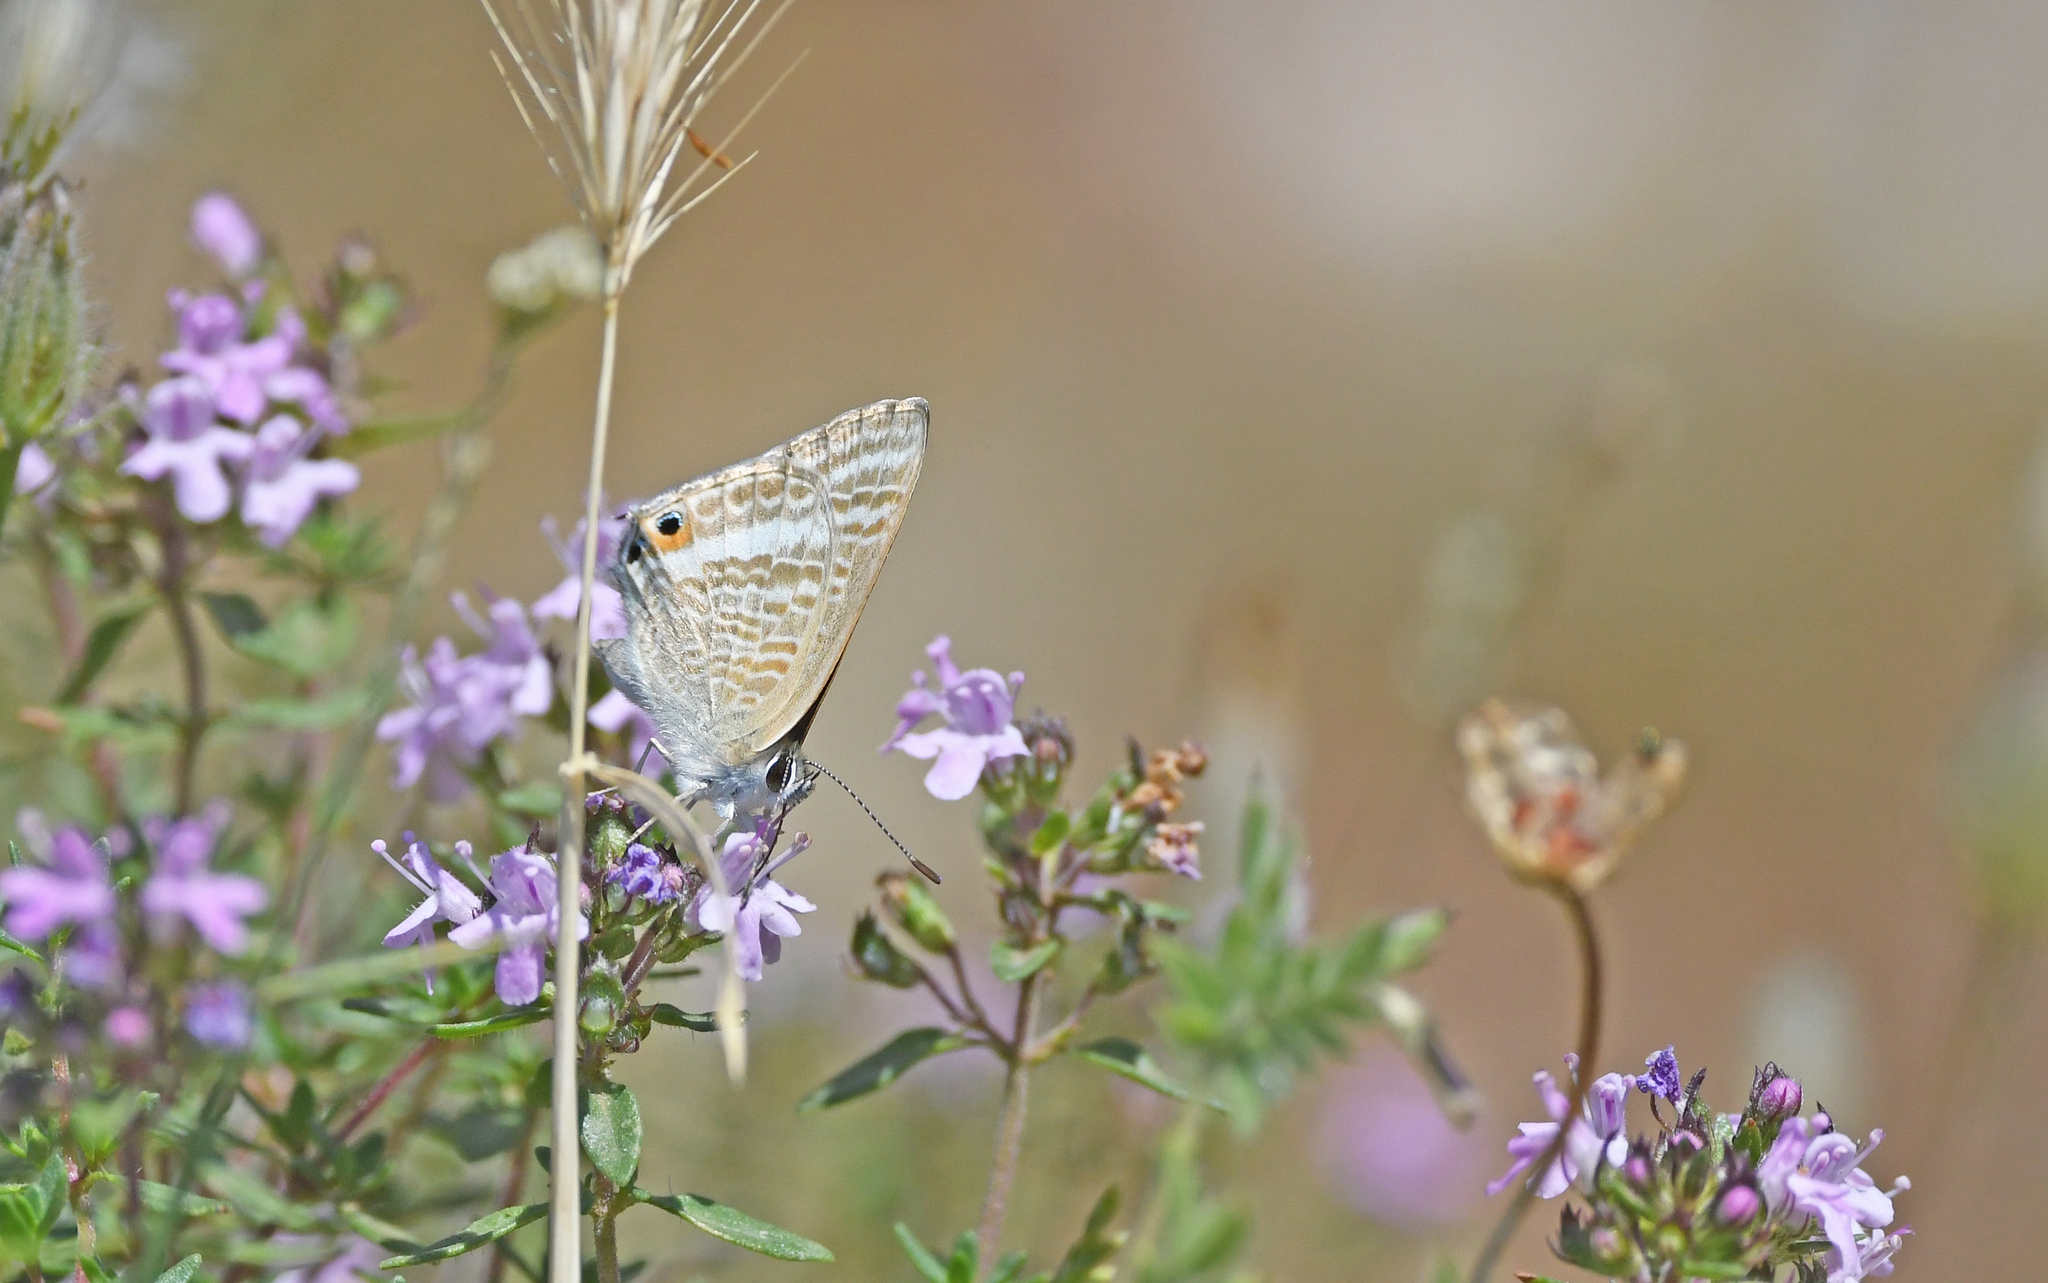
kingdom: Animalia
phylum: Arthropoda
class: Insecta
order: Lepidoptera
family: Lycaenidae
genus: Lampides
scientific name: Lampides boeticus
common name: Long-tailed blue
